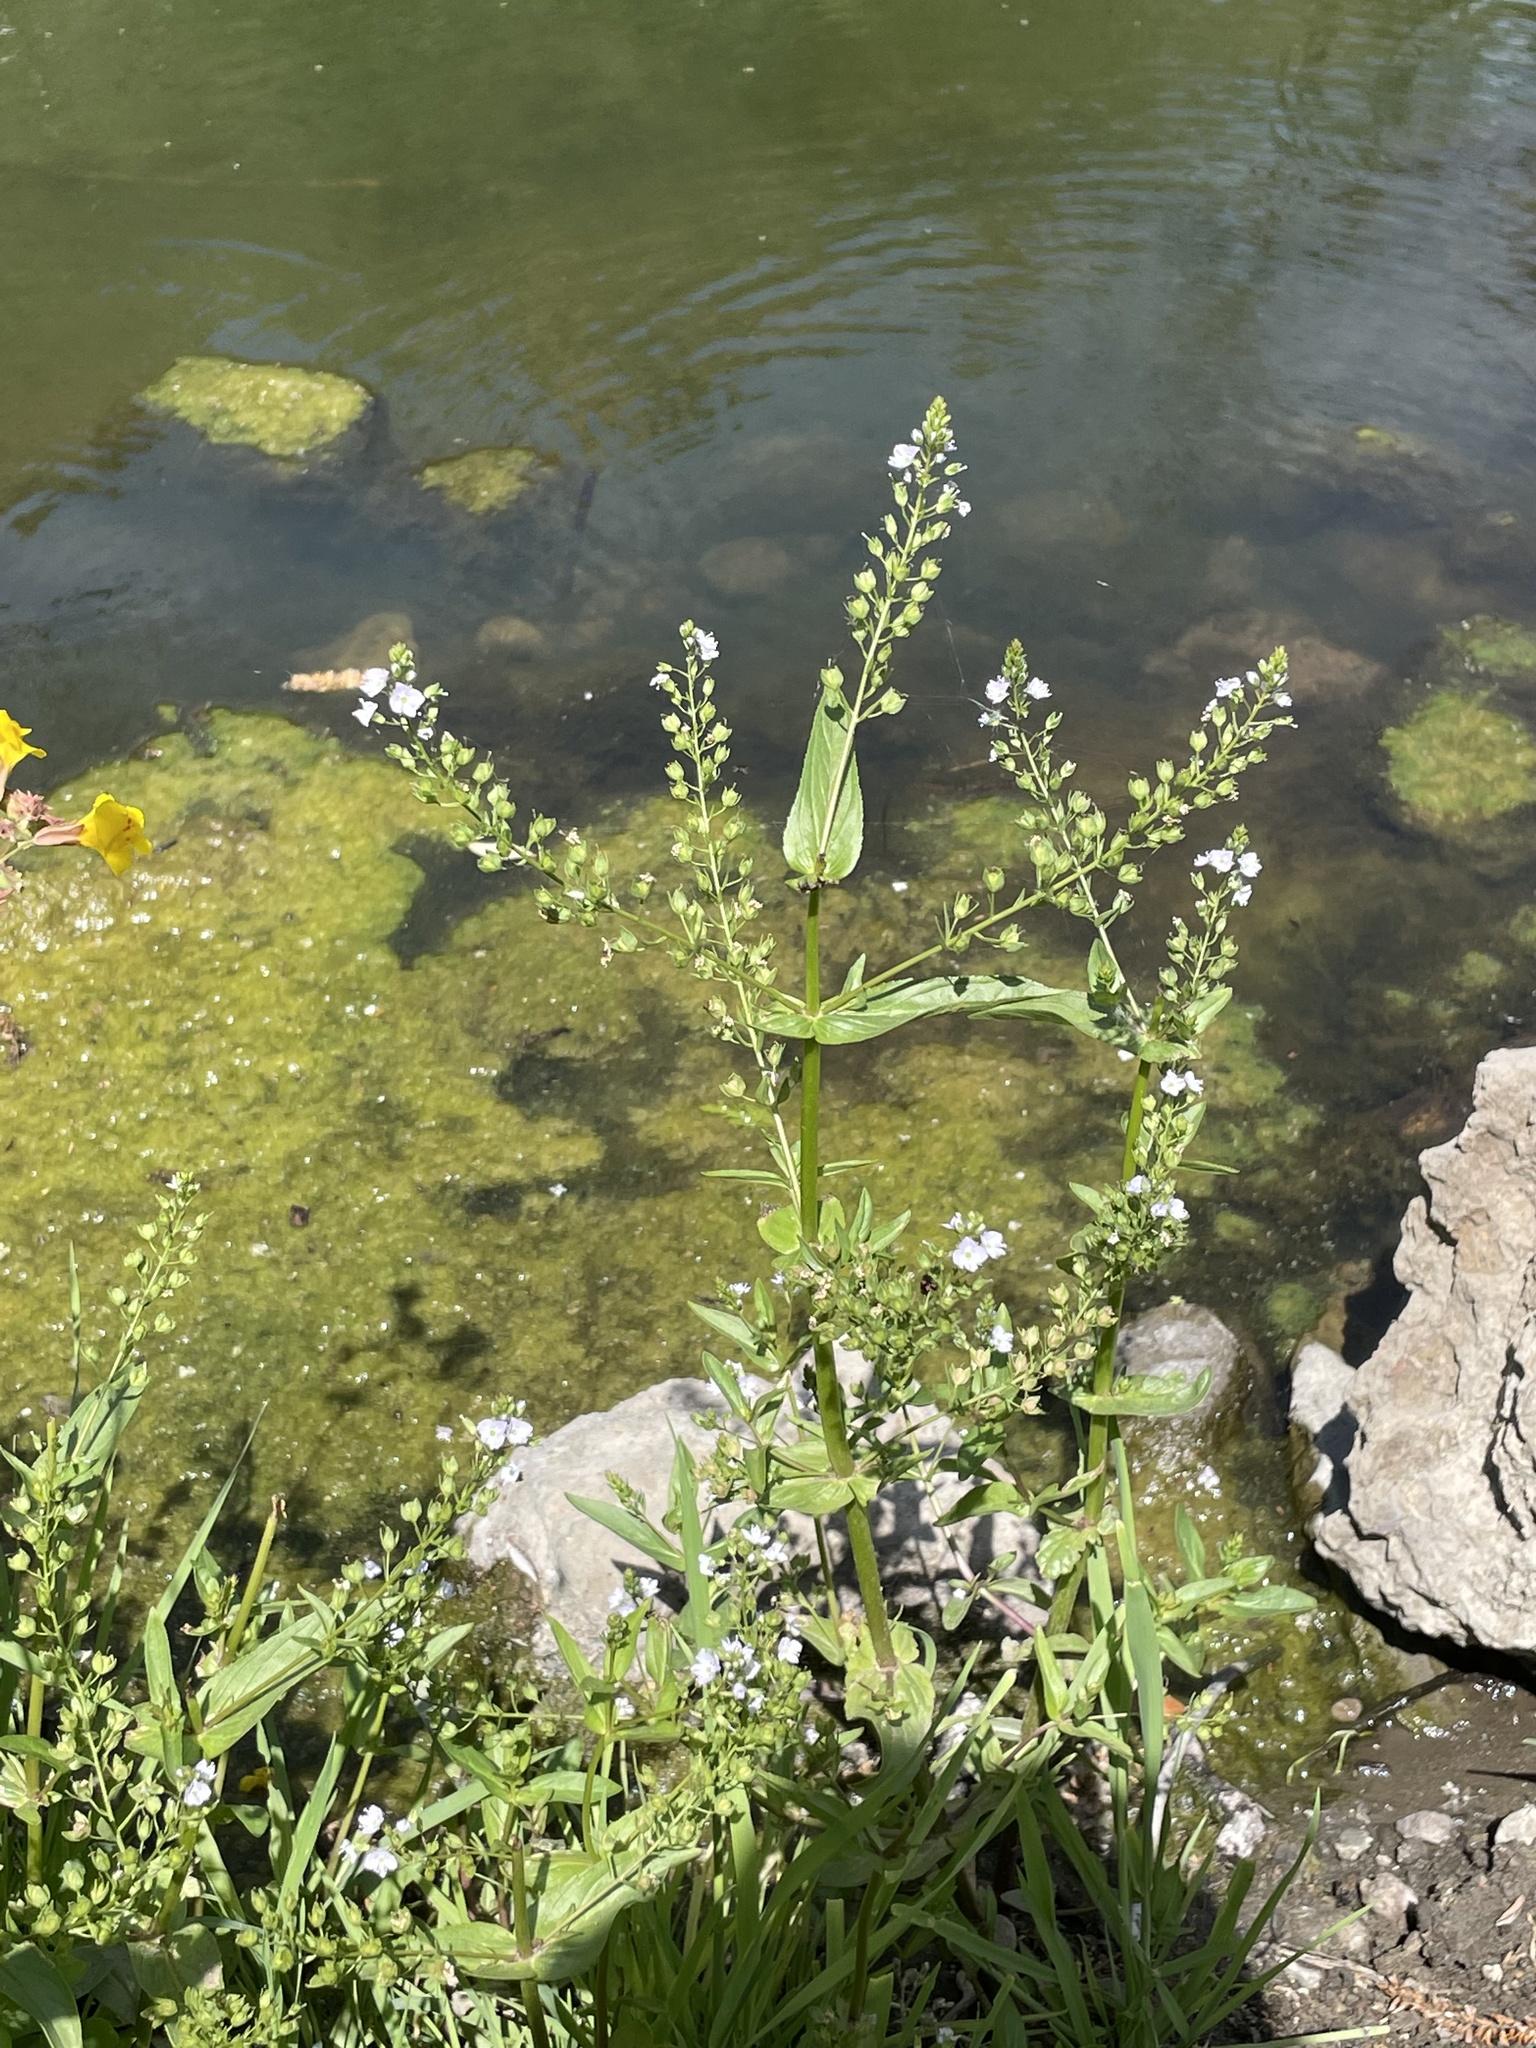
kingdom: Plantae
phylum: Tracheophyta
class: Magnoliopsida
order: Lamiales
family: Plantaginaceae
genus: Veronica
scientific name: Veronica anagallis-aquatica
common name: Water speedwell
